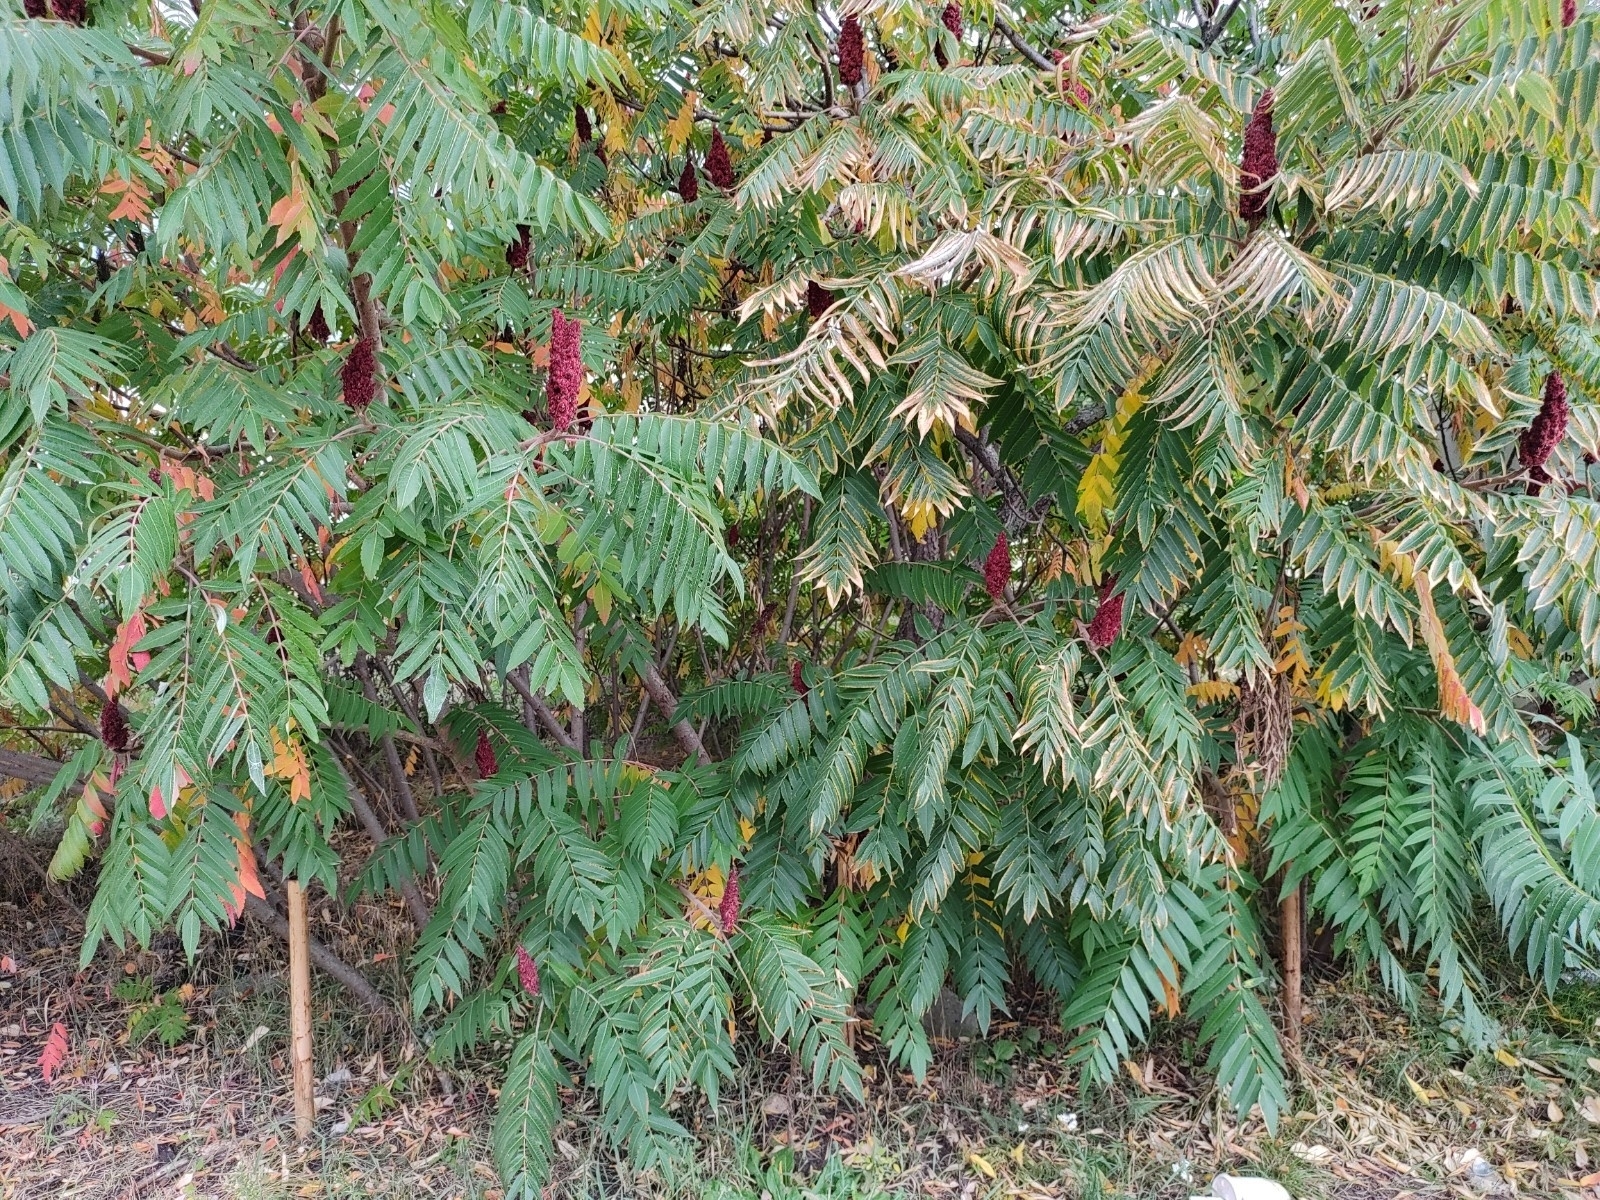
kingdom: Plantae
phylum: Tracheophyta
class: Magnoliopsida
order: Sapindales
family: Anacardiaceae
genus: Rhus
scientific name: Rhus typhina
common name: Staghorn sumac
